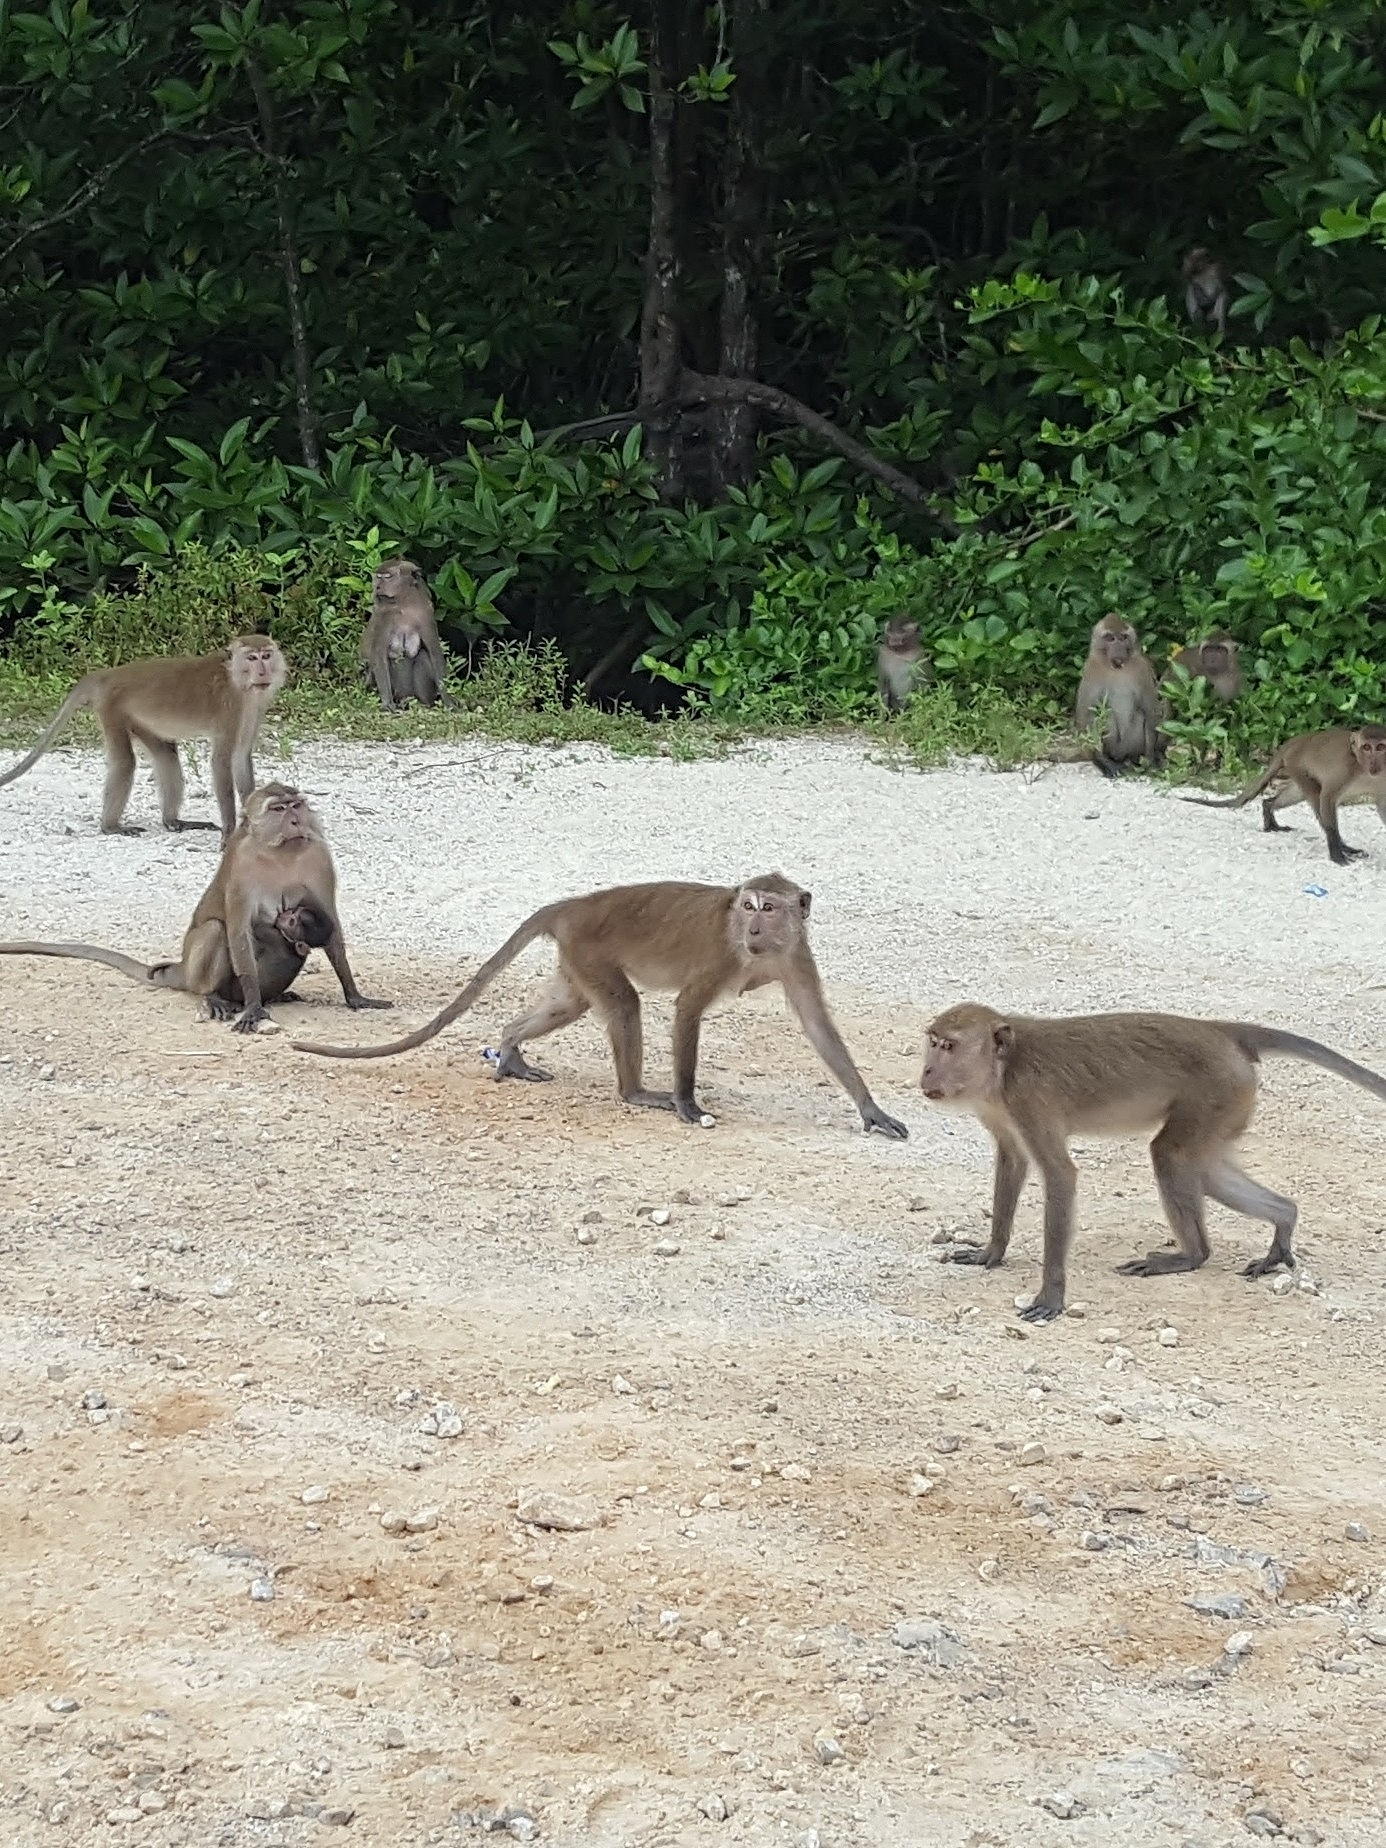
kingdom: Animalia
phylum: Chordata
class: Mammalia
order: Primates
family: Cercopithecidae
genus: Macaca
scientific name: Macaca fascicularis
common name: Crab-eating macaque
